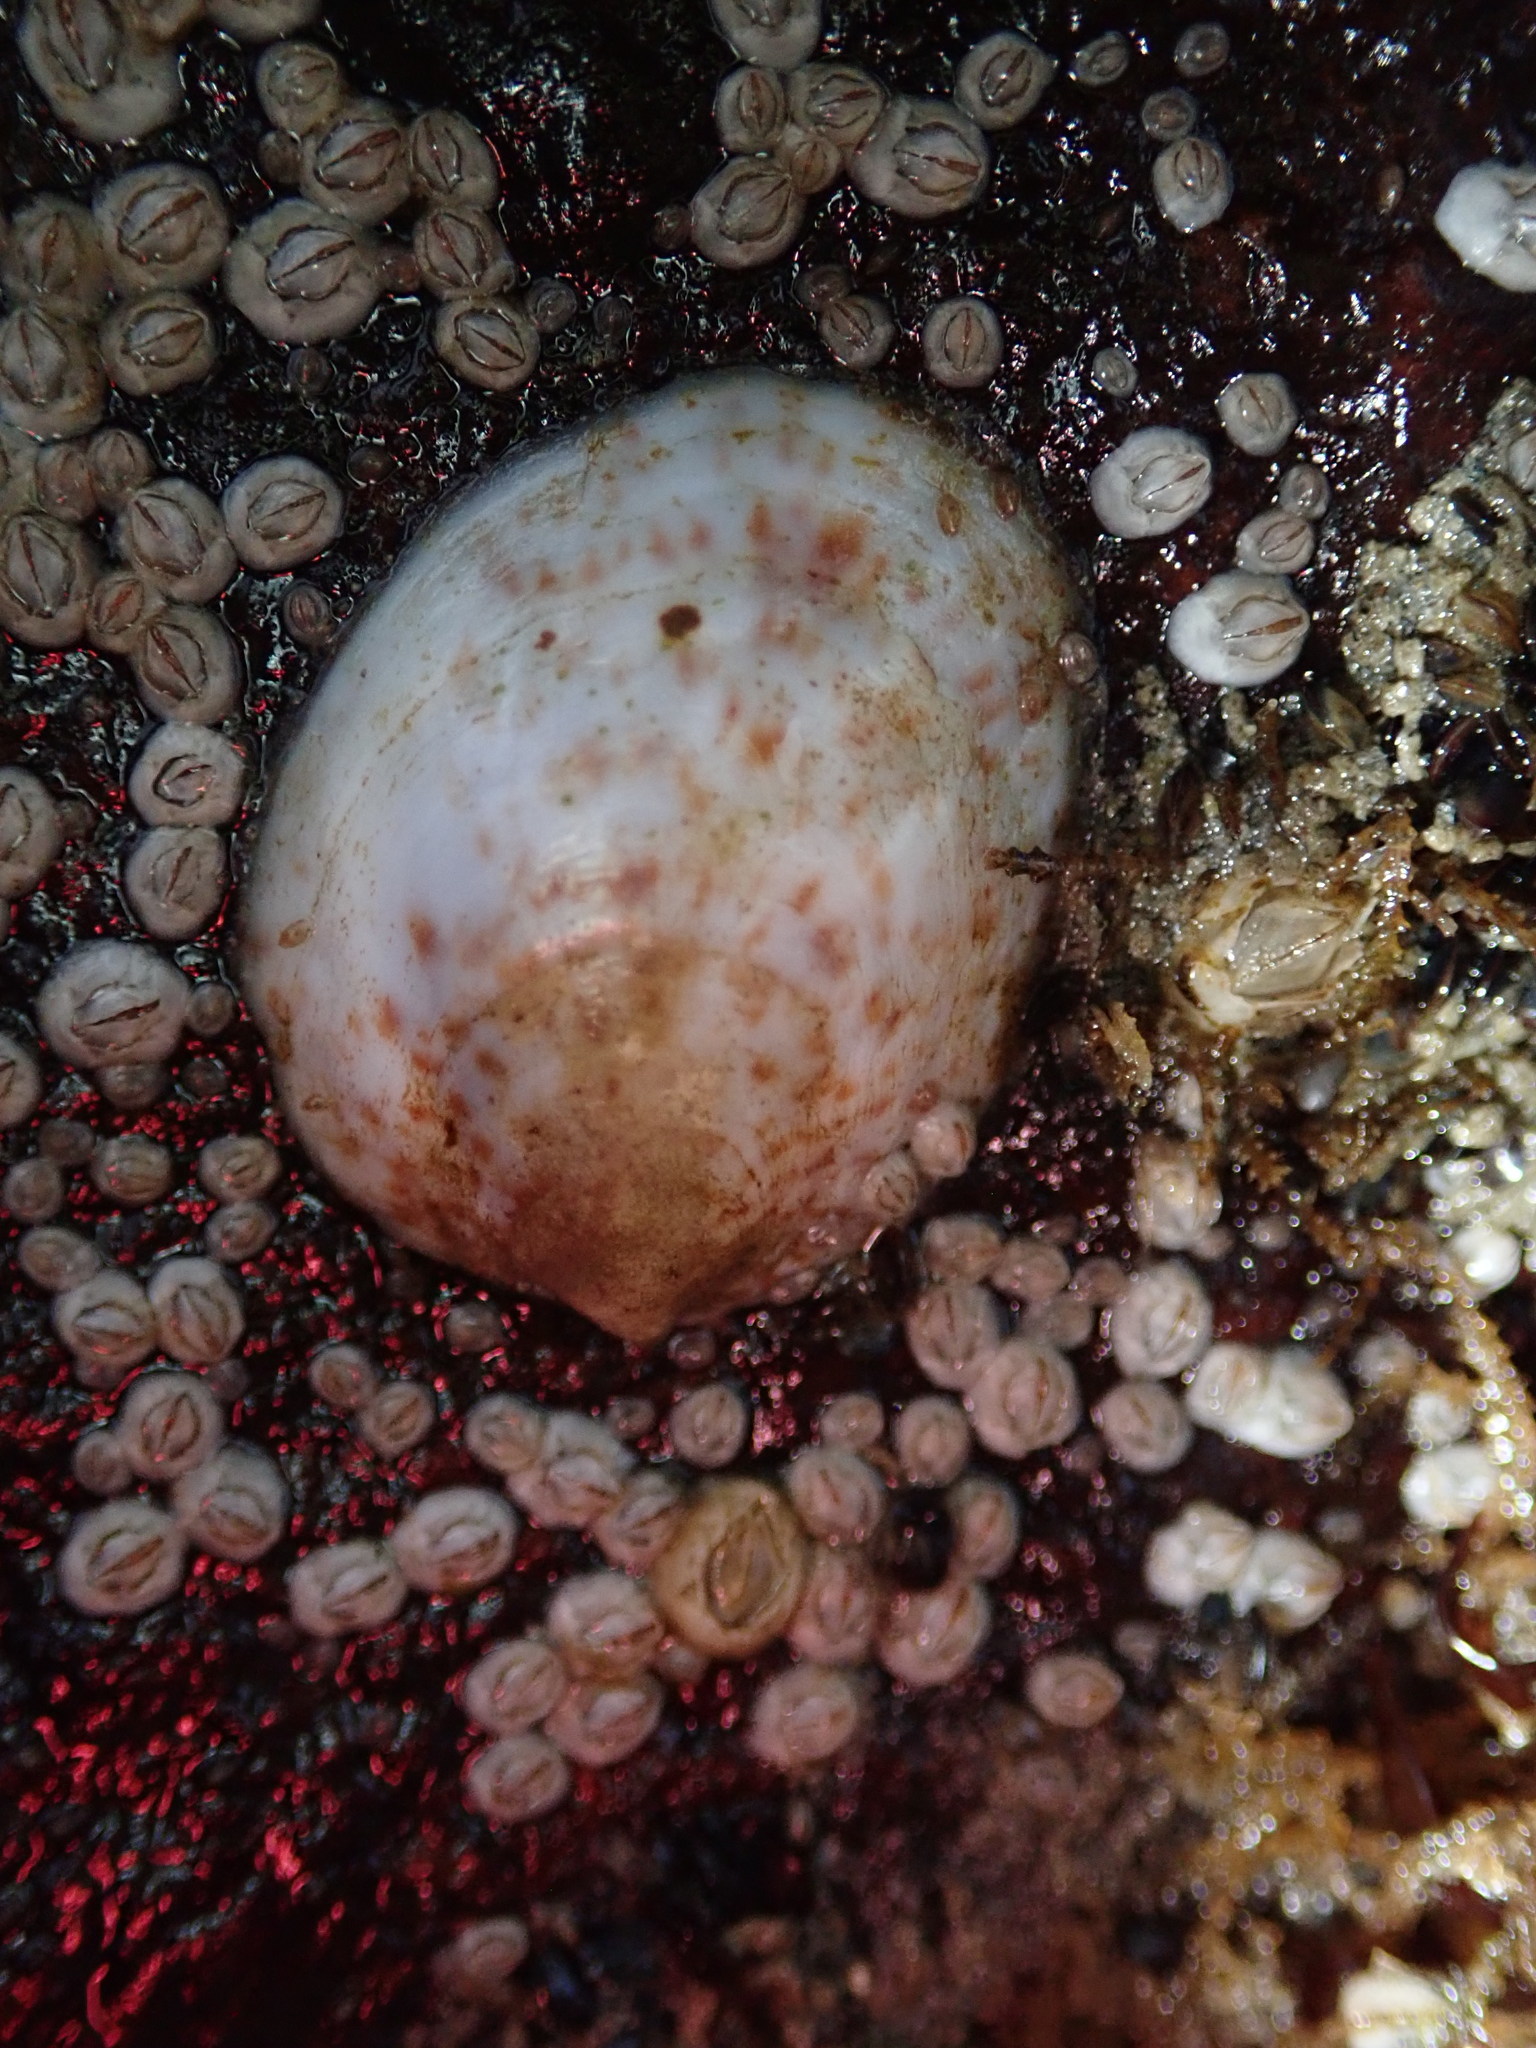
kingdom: Animalia
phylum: Mollusca
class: Gastropoda
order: Littorinimorpha
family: Calyptraeidae
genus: Crepidula
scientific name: Crepidula fornicata
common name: Slipper limpet
